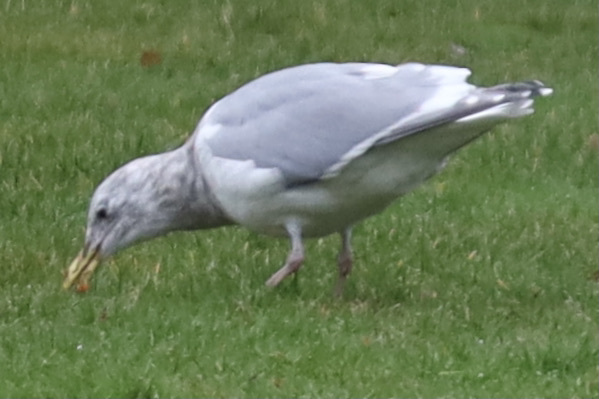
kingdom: Animalia
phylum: Chordata
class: Aves
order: Charadriiformes
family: Laridae
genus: Larus
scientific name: Larus
